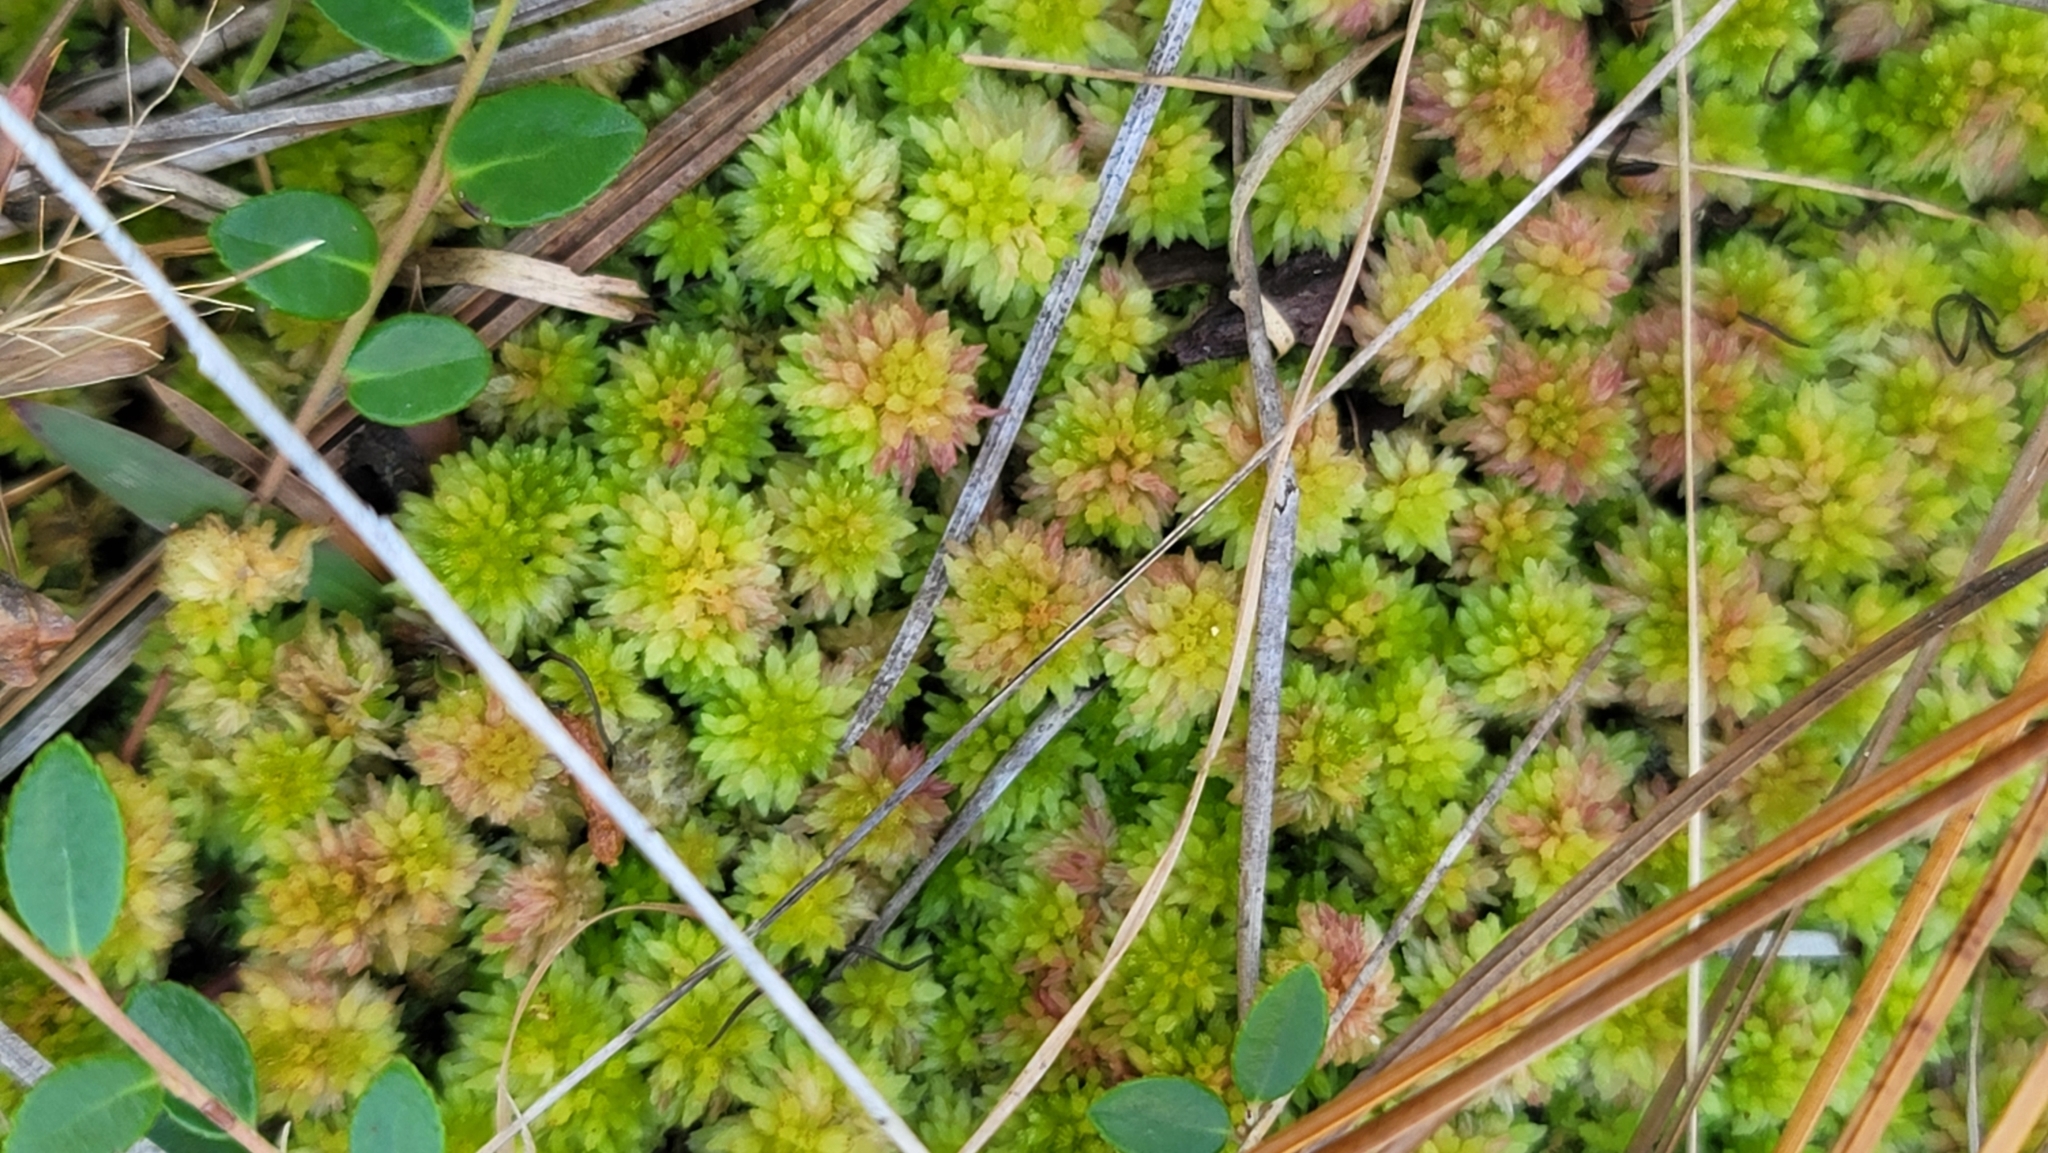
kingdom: Plantae
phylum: Bryophyta
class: Sphagnopsida
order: Sphagnales
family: Sphagnaceae
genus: Sphagnum
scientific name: Sphagnum tenerum
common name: Slender peat moss
